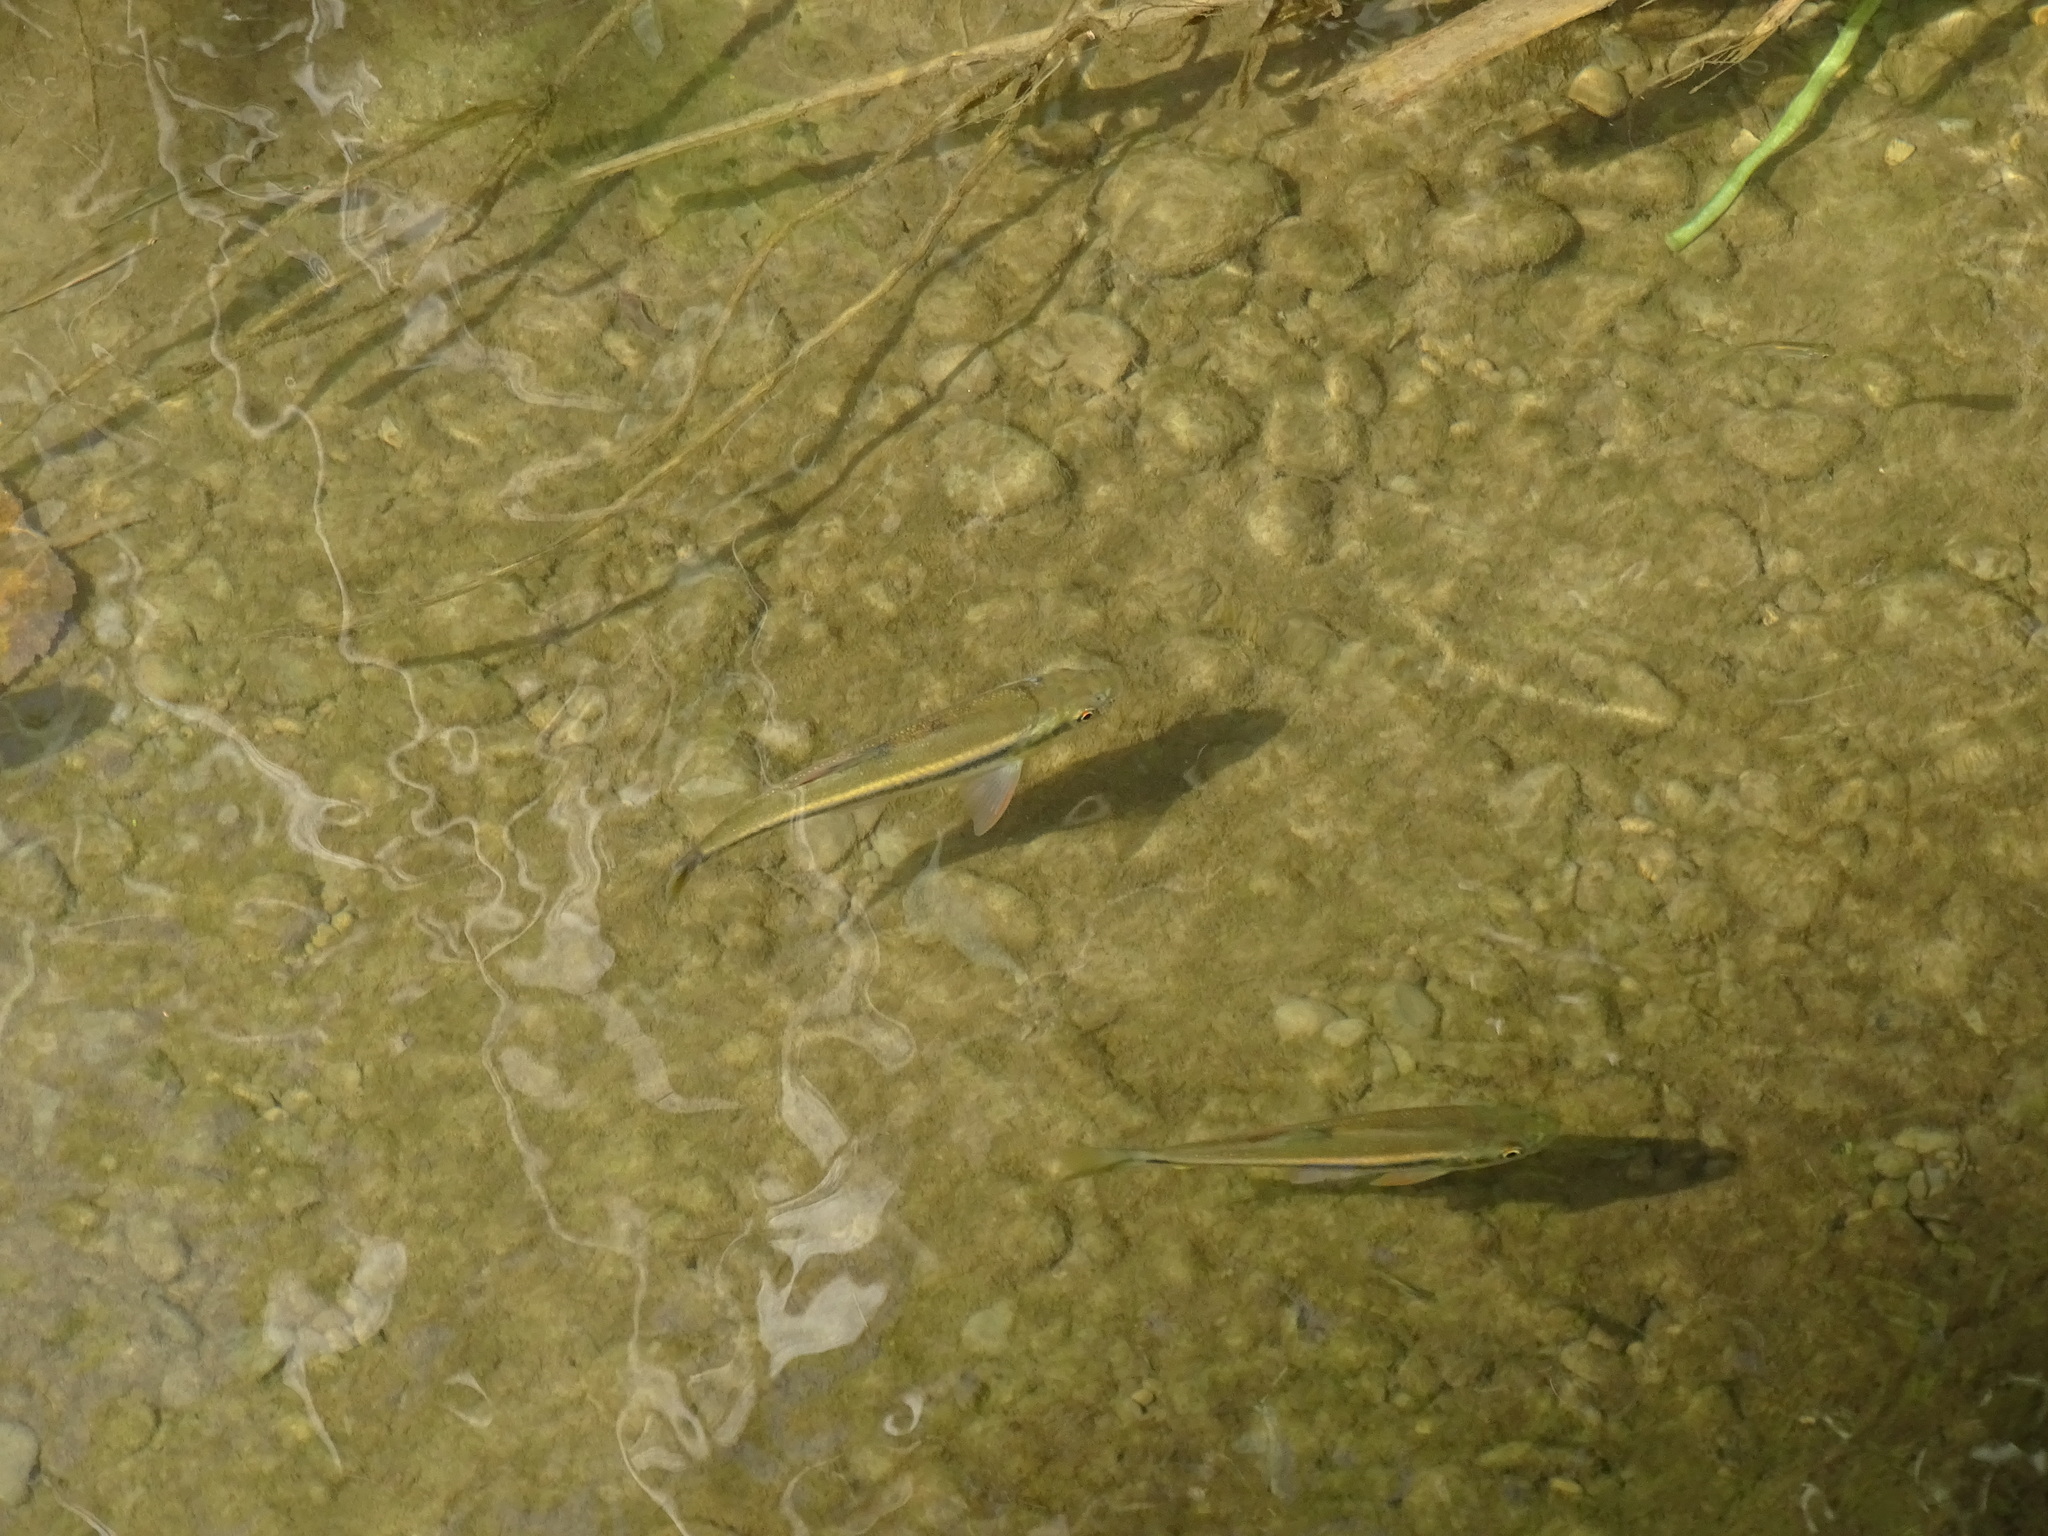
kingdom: Animalia
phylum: Chordata
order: Cypriniformes
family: Cyprinidae
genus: Candidia
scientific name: Candidia barbata
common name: Lake candidus dace
